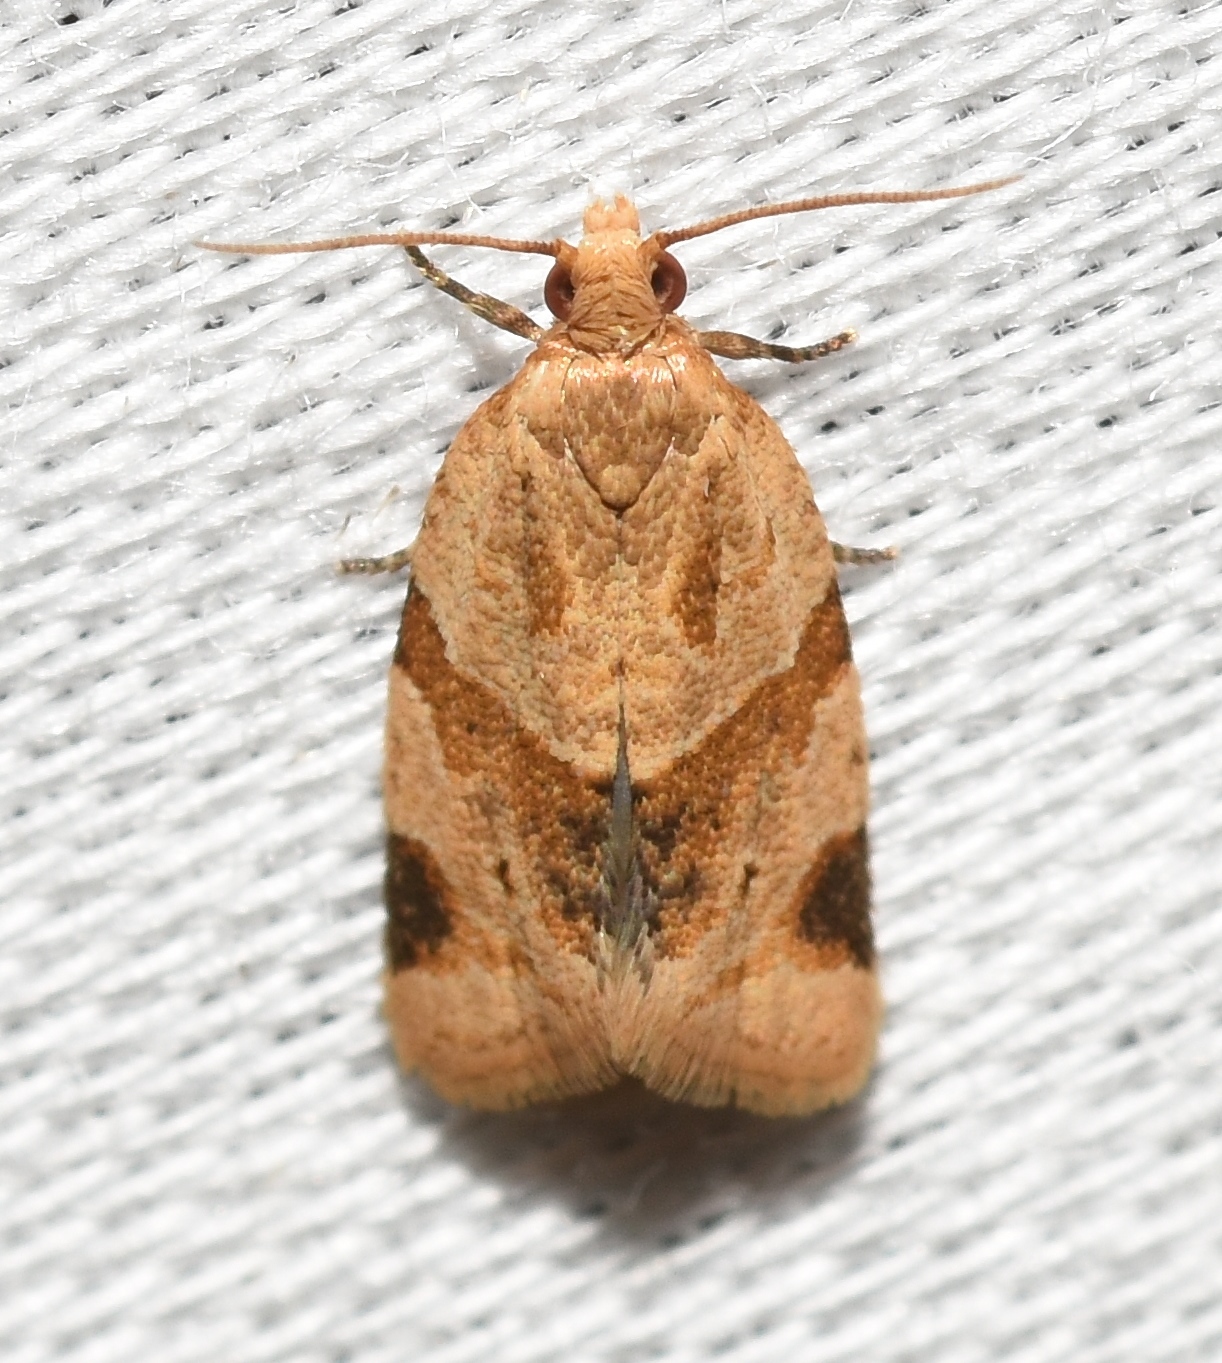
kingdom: Animalia
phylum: Arthropoda
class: Insecta
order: Lepidoptera
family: Tortricidae
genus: Clepsis
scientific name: Clepsis peritana
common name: Garden tortrix
